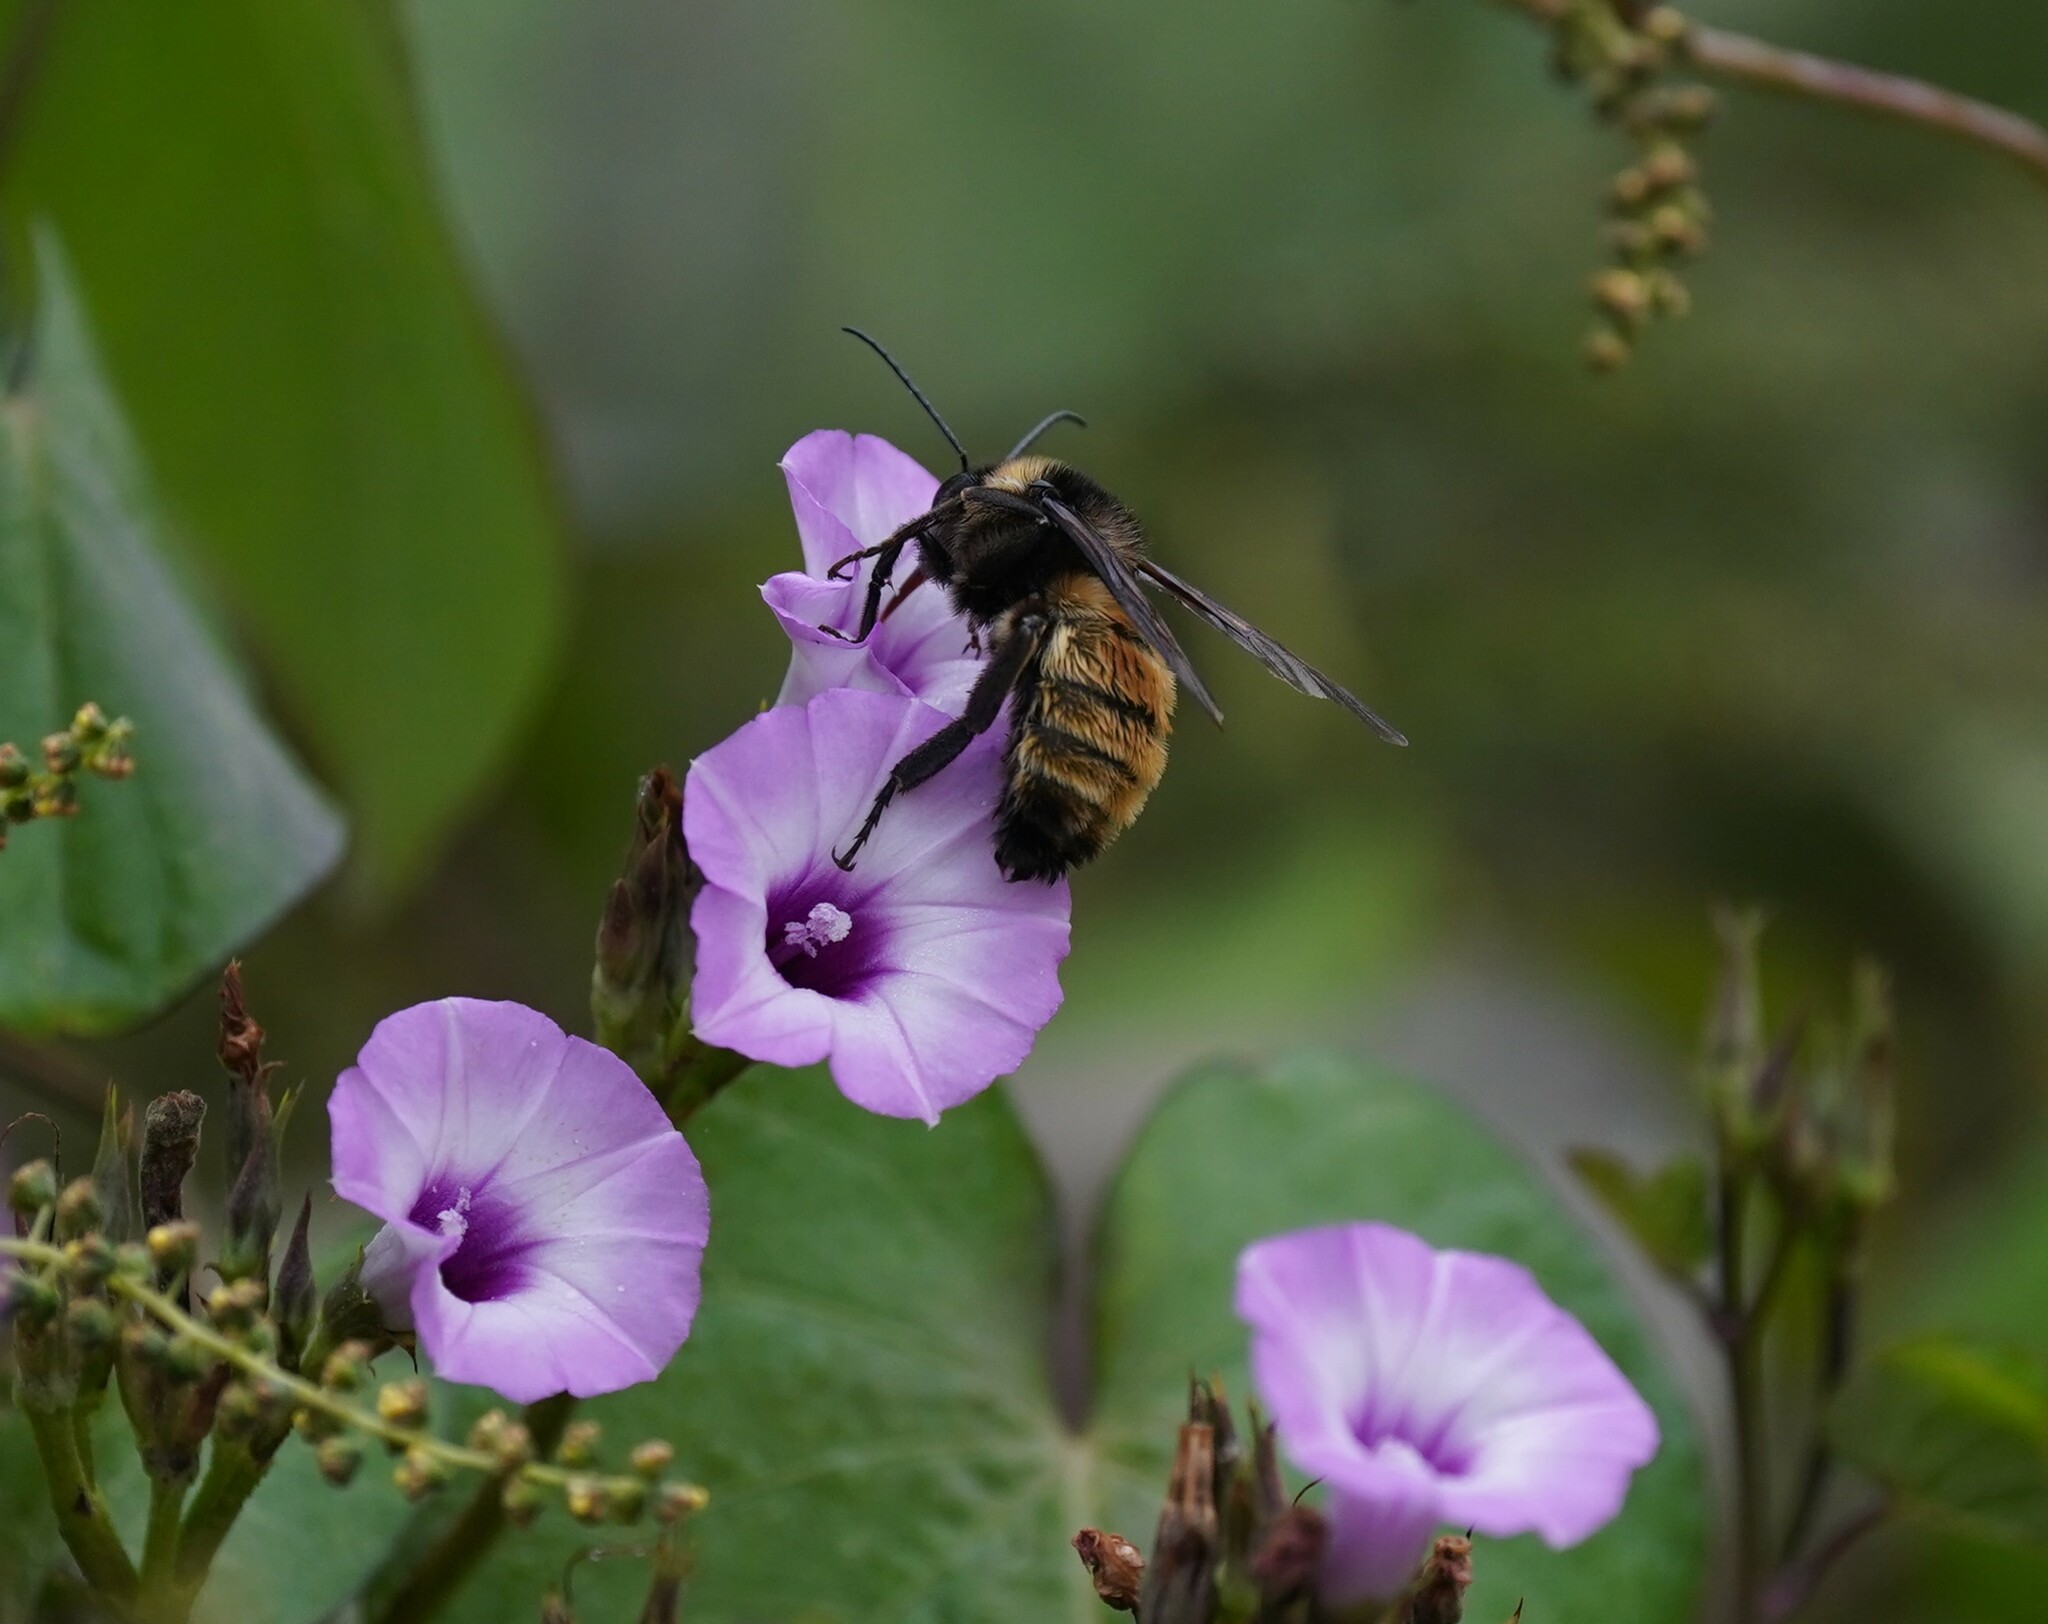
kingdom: Animalia
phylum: Arthropoda
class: Insecta
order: Hymenoptera
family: Apidae
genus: Bombus
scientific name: Bombus pensylvanicus
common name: Bumble bee
